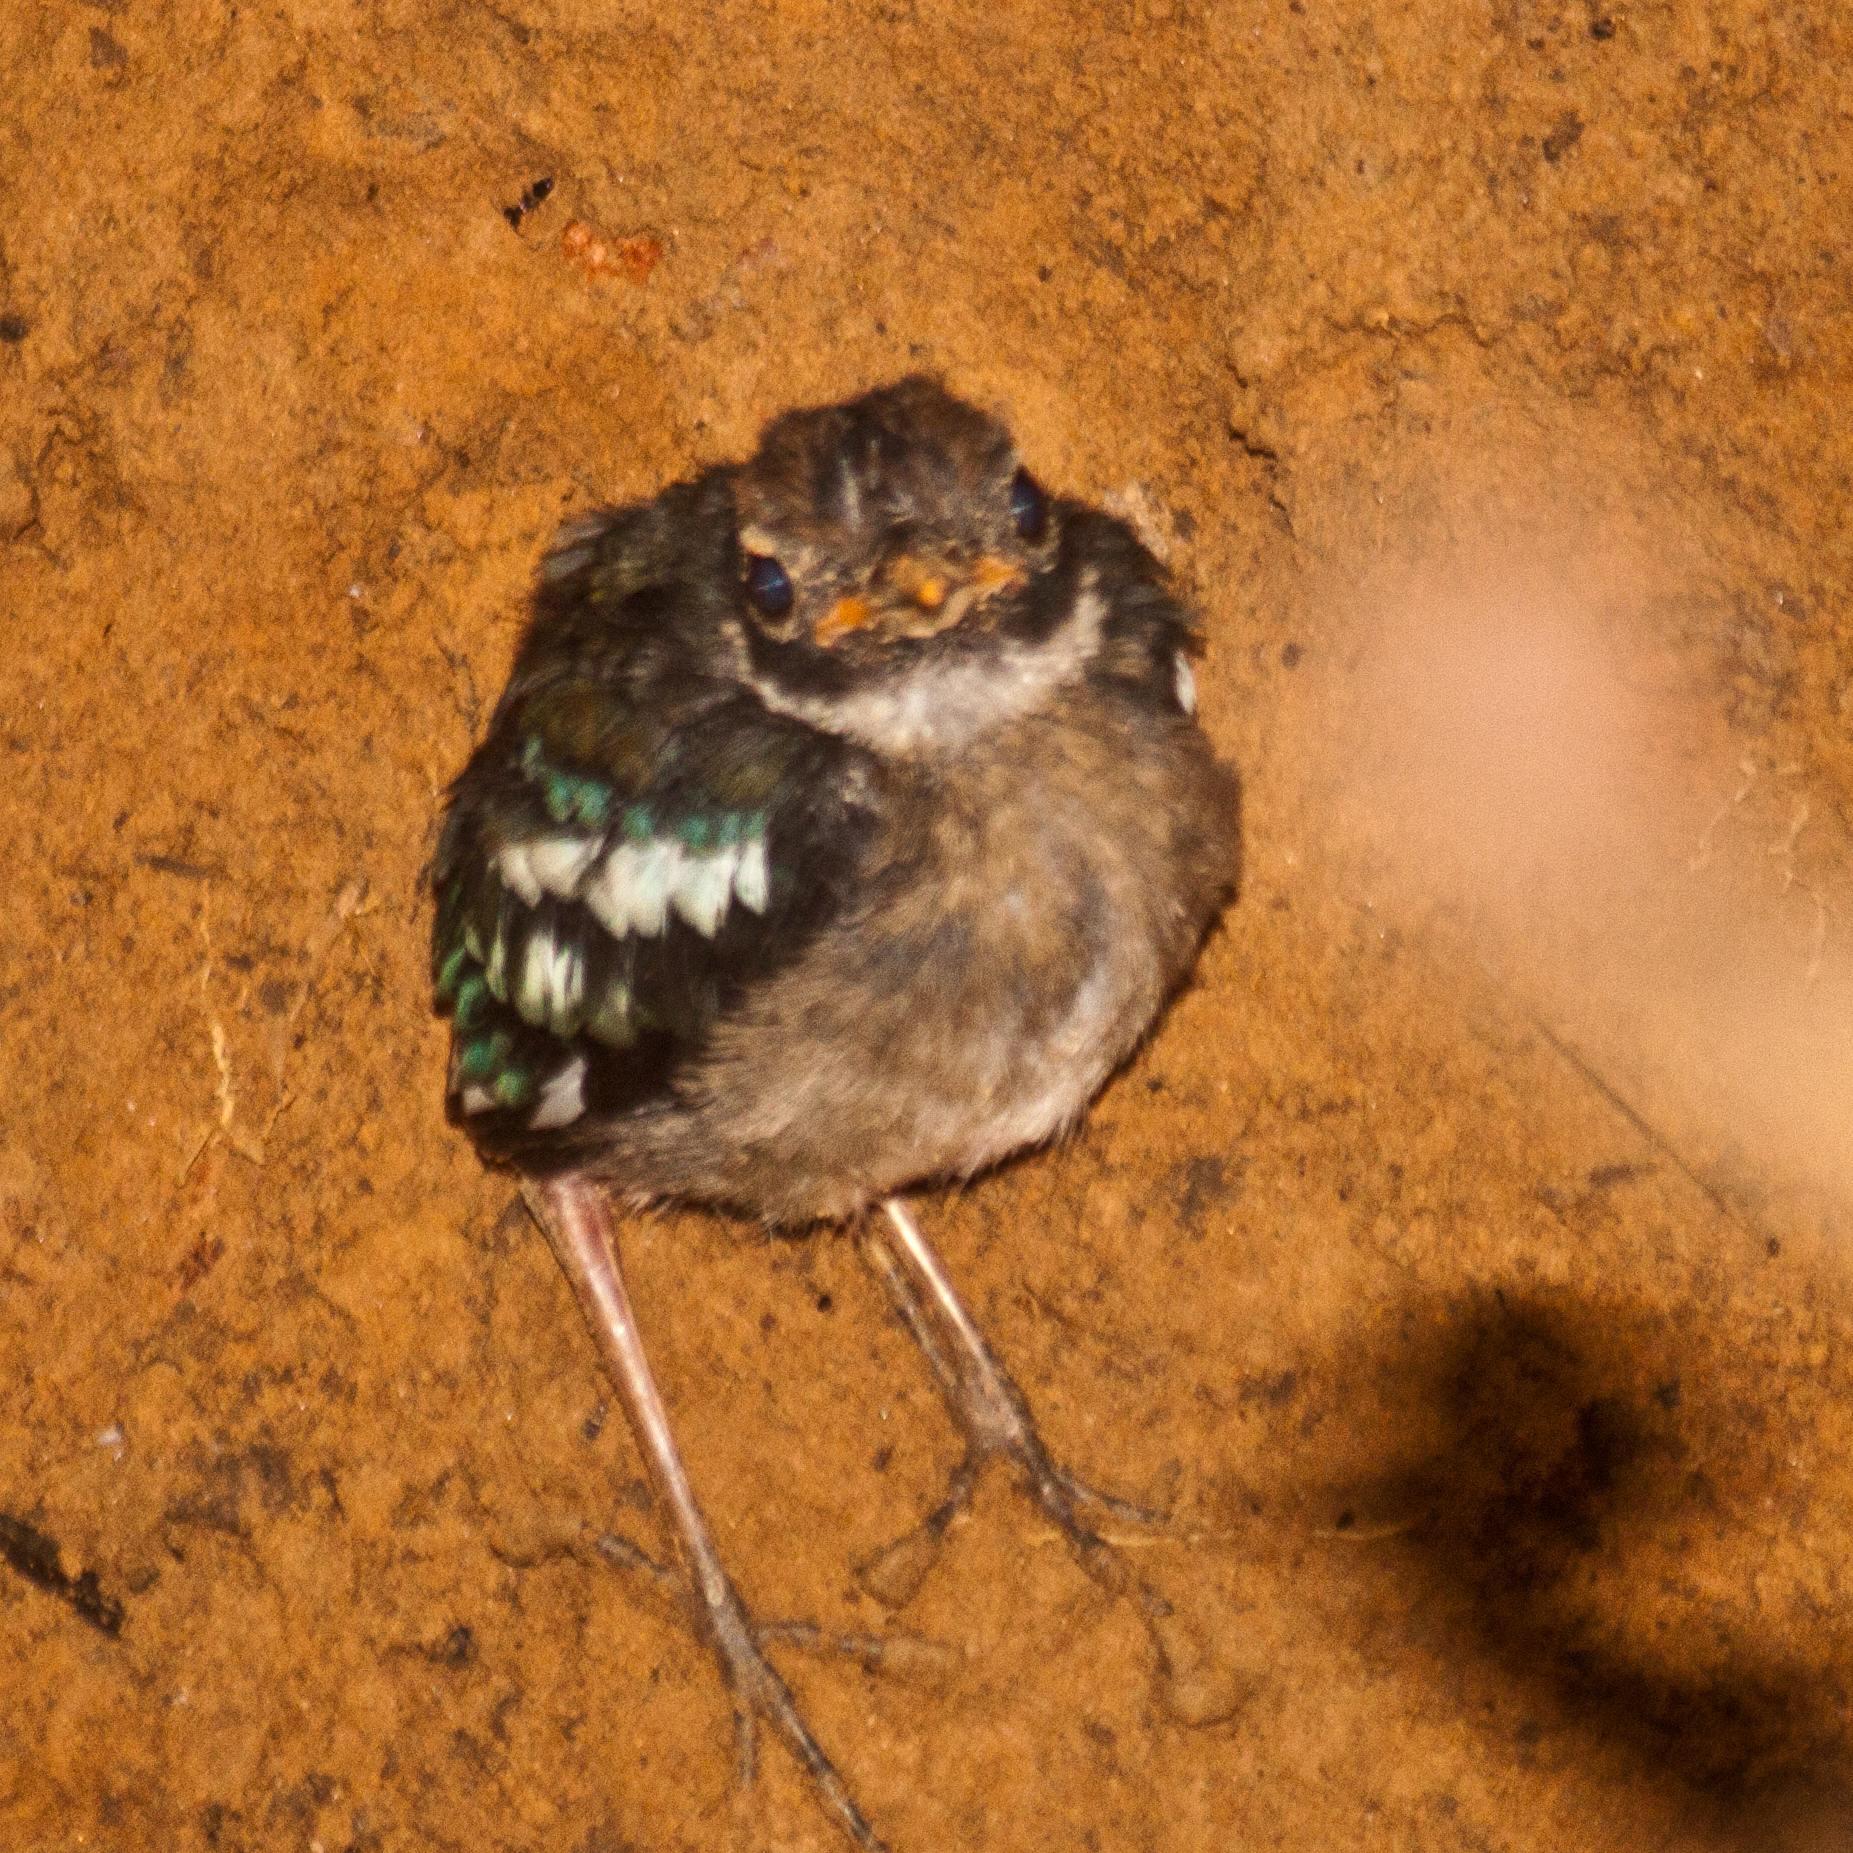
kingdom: Animalia
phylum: Chordata
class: Aves
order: Passeriformes
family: Pittidae
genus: Pitta
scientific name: Pitta sordida
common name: Hooded pitta
